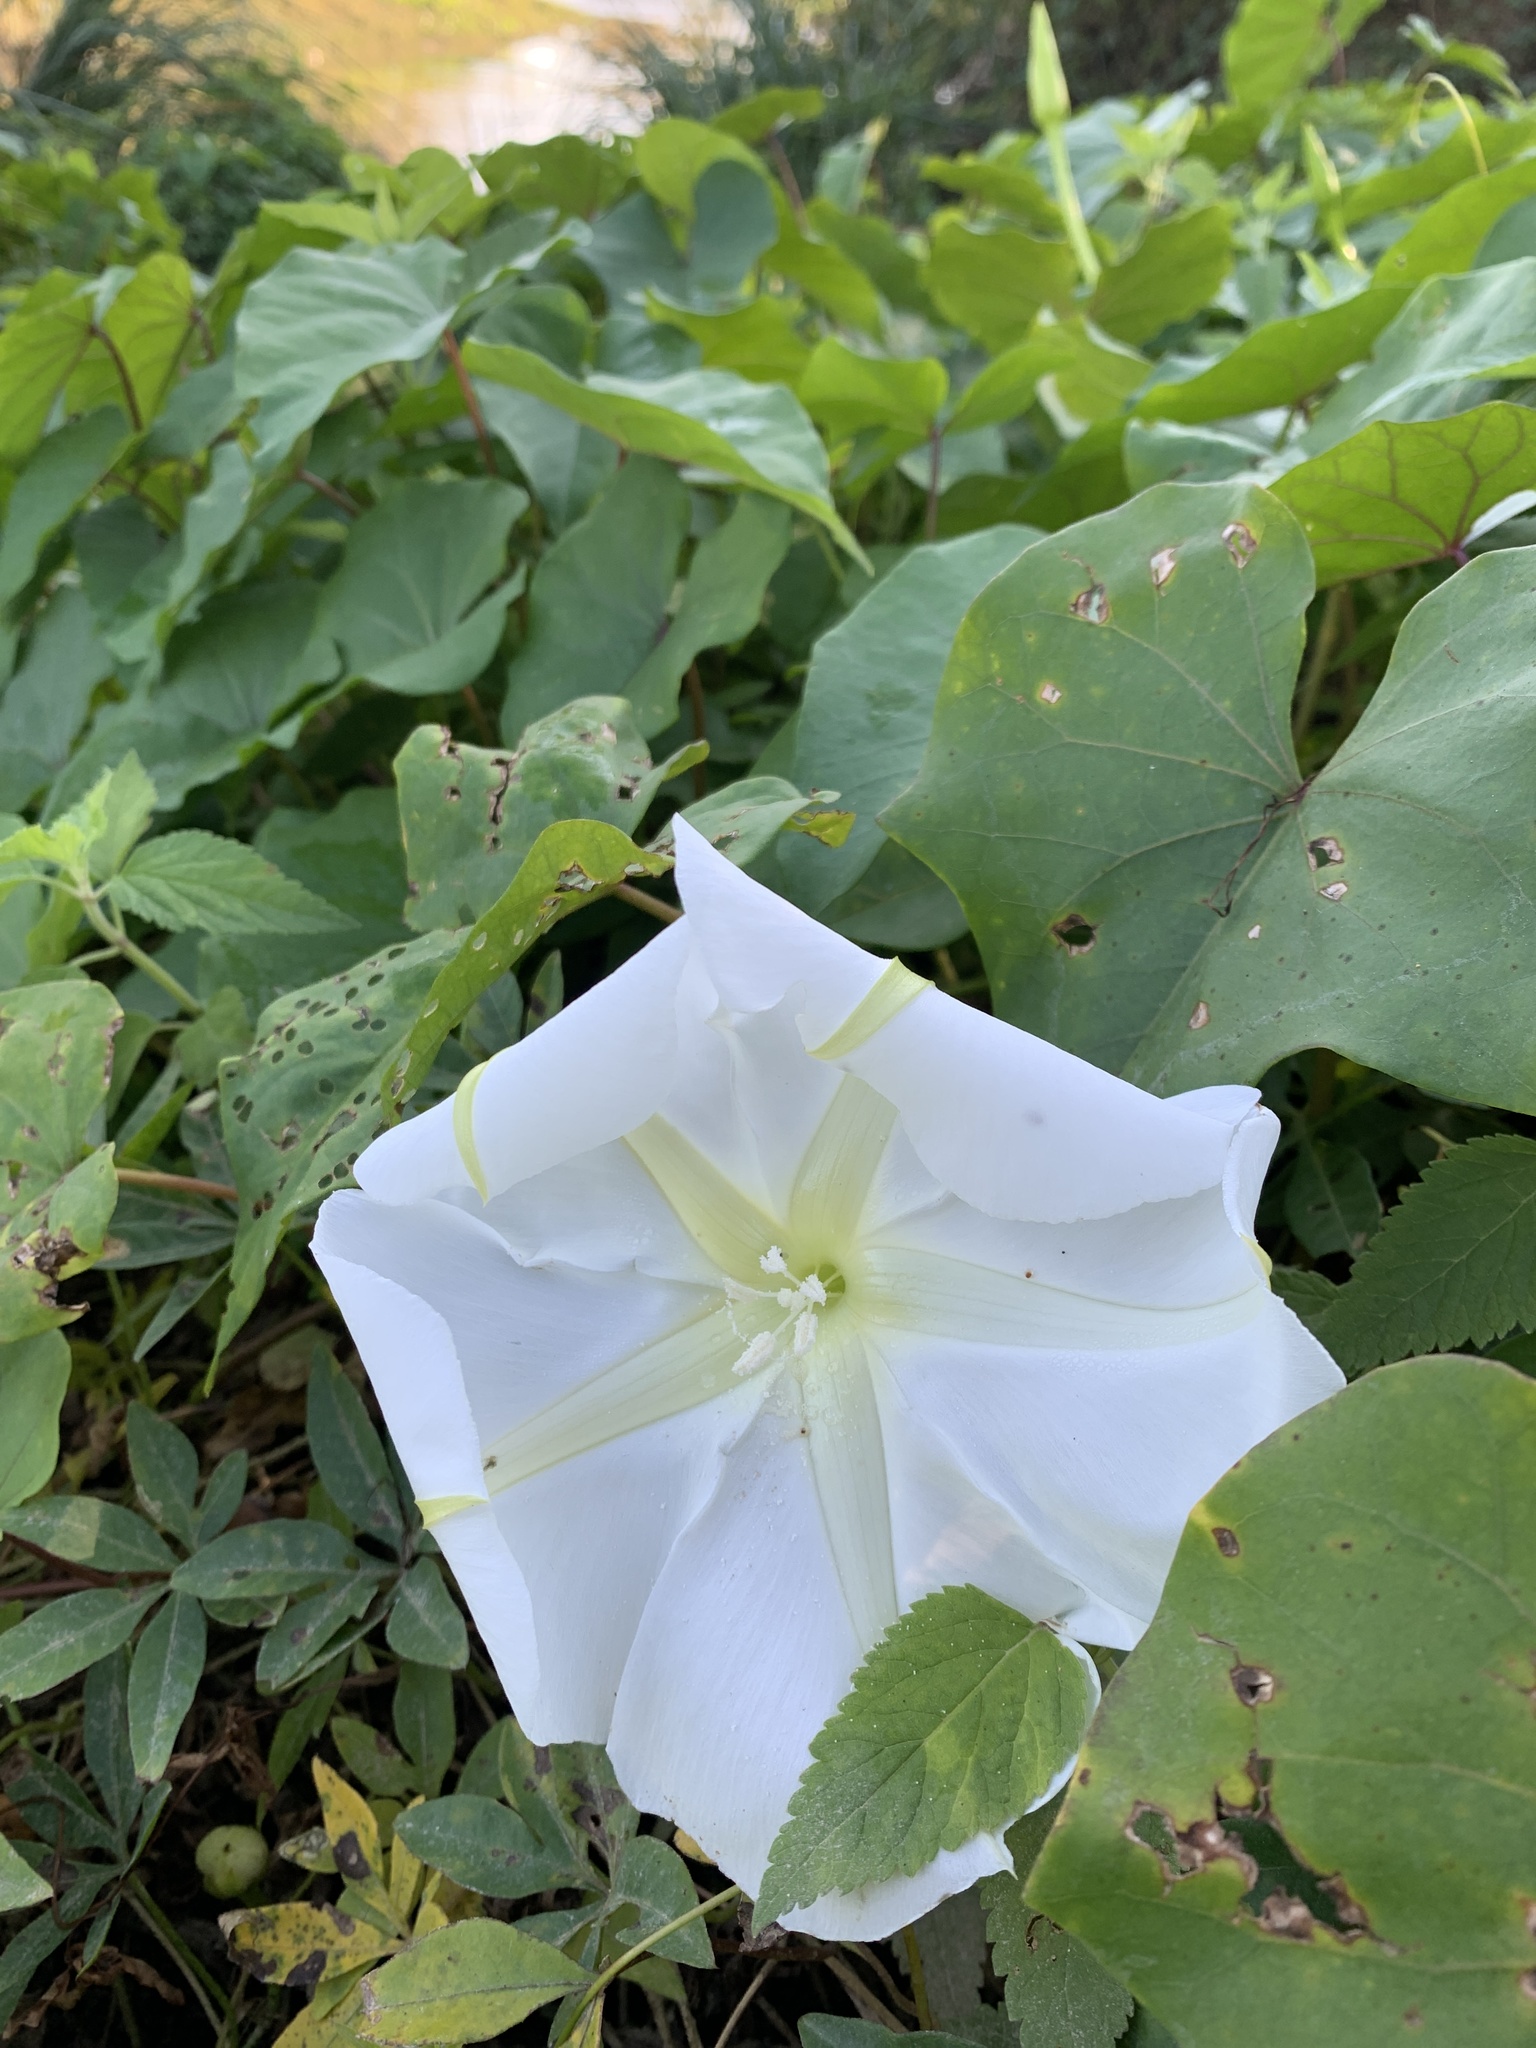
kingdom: Plantae
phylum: Tracheophyta
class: Magnoliopsida
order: Solanales
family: Convolvulaceae
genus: Ipomoea
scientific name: Ipomoea alba
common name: Moonflower
